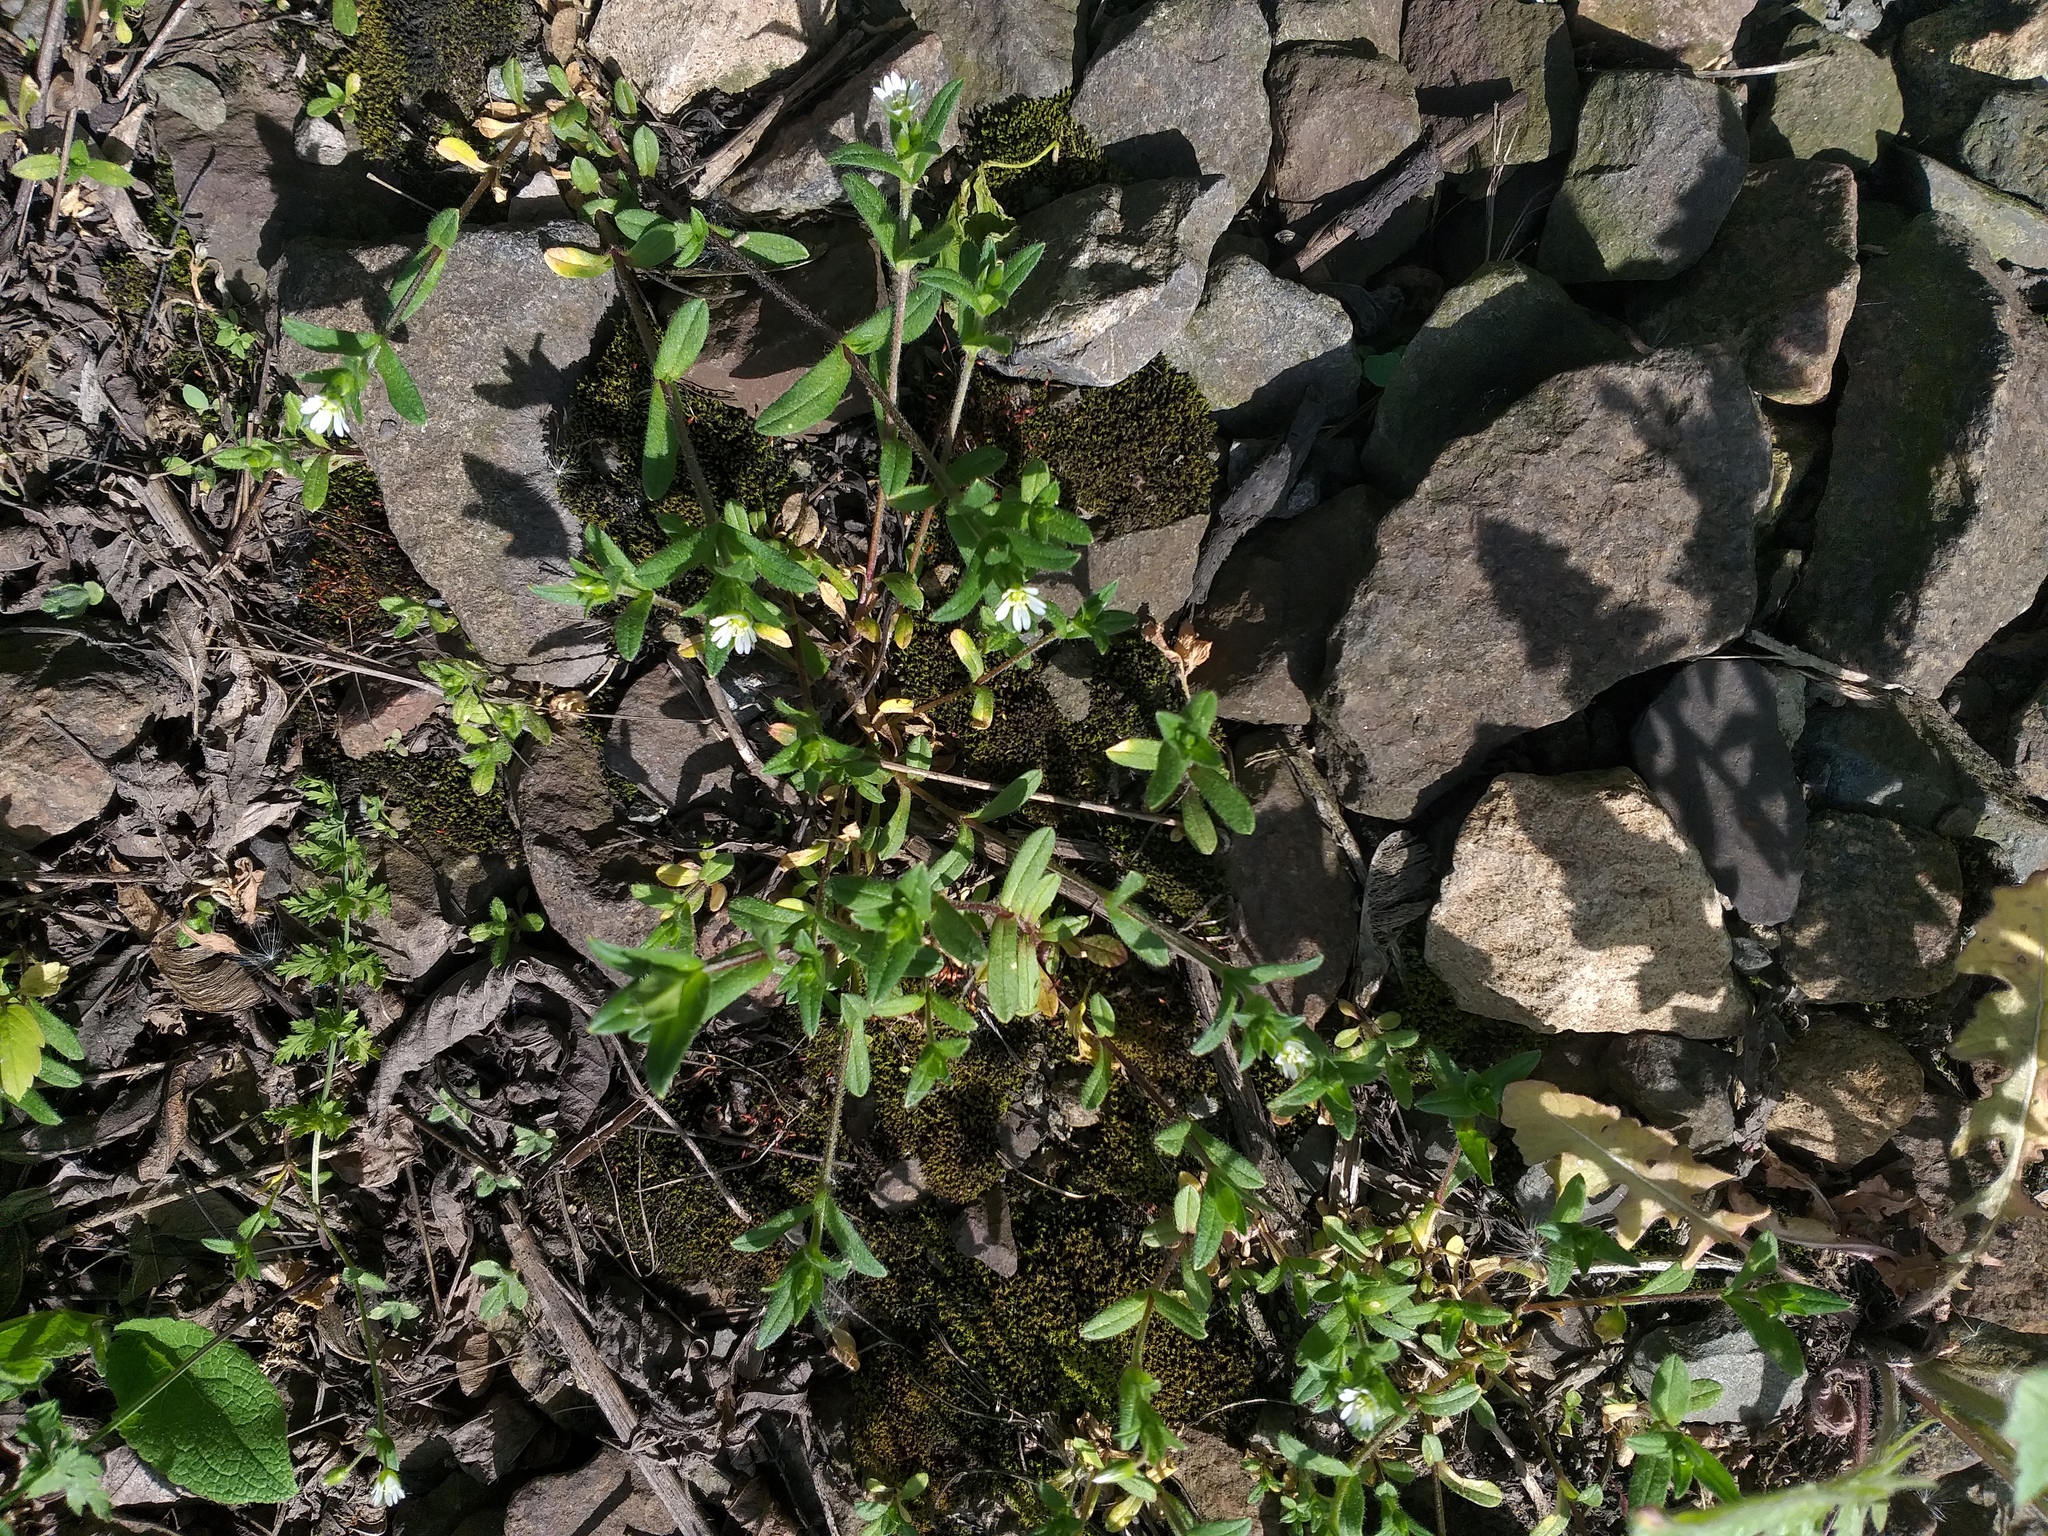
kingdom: Plantae
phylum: Tracheophyta
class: Magnoliopsida
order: Caryophyllales
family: Caryophyllaceae
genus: Cerastium
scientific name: Cerastium holosteoides
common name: Big chickweed
